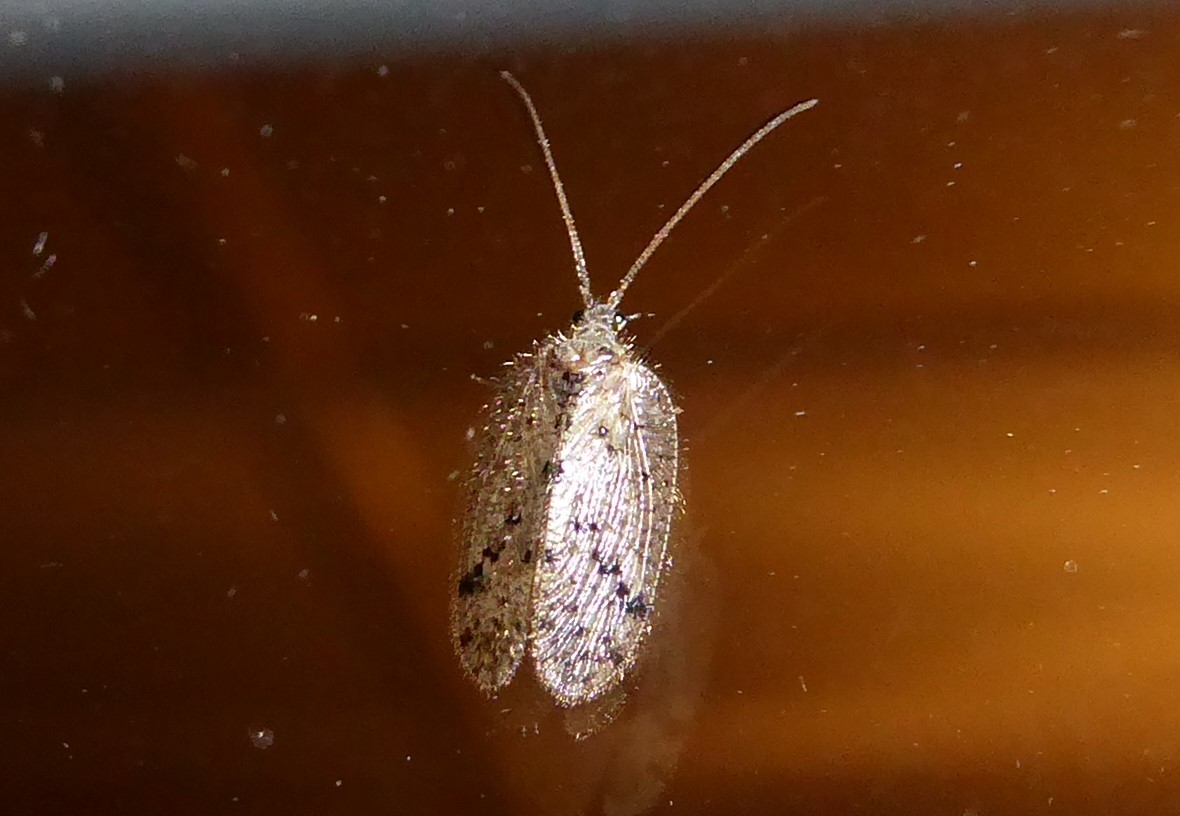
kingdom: Animalia
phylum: Arthropoda
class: Insecta
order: Neuroptera
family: Hemerobiidae
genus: Psectra
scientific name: Psectra nakaharai
